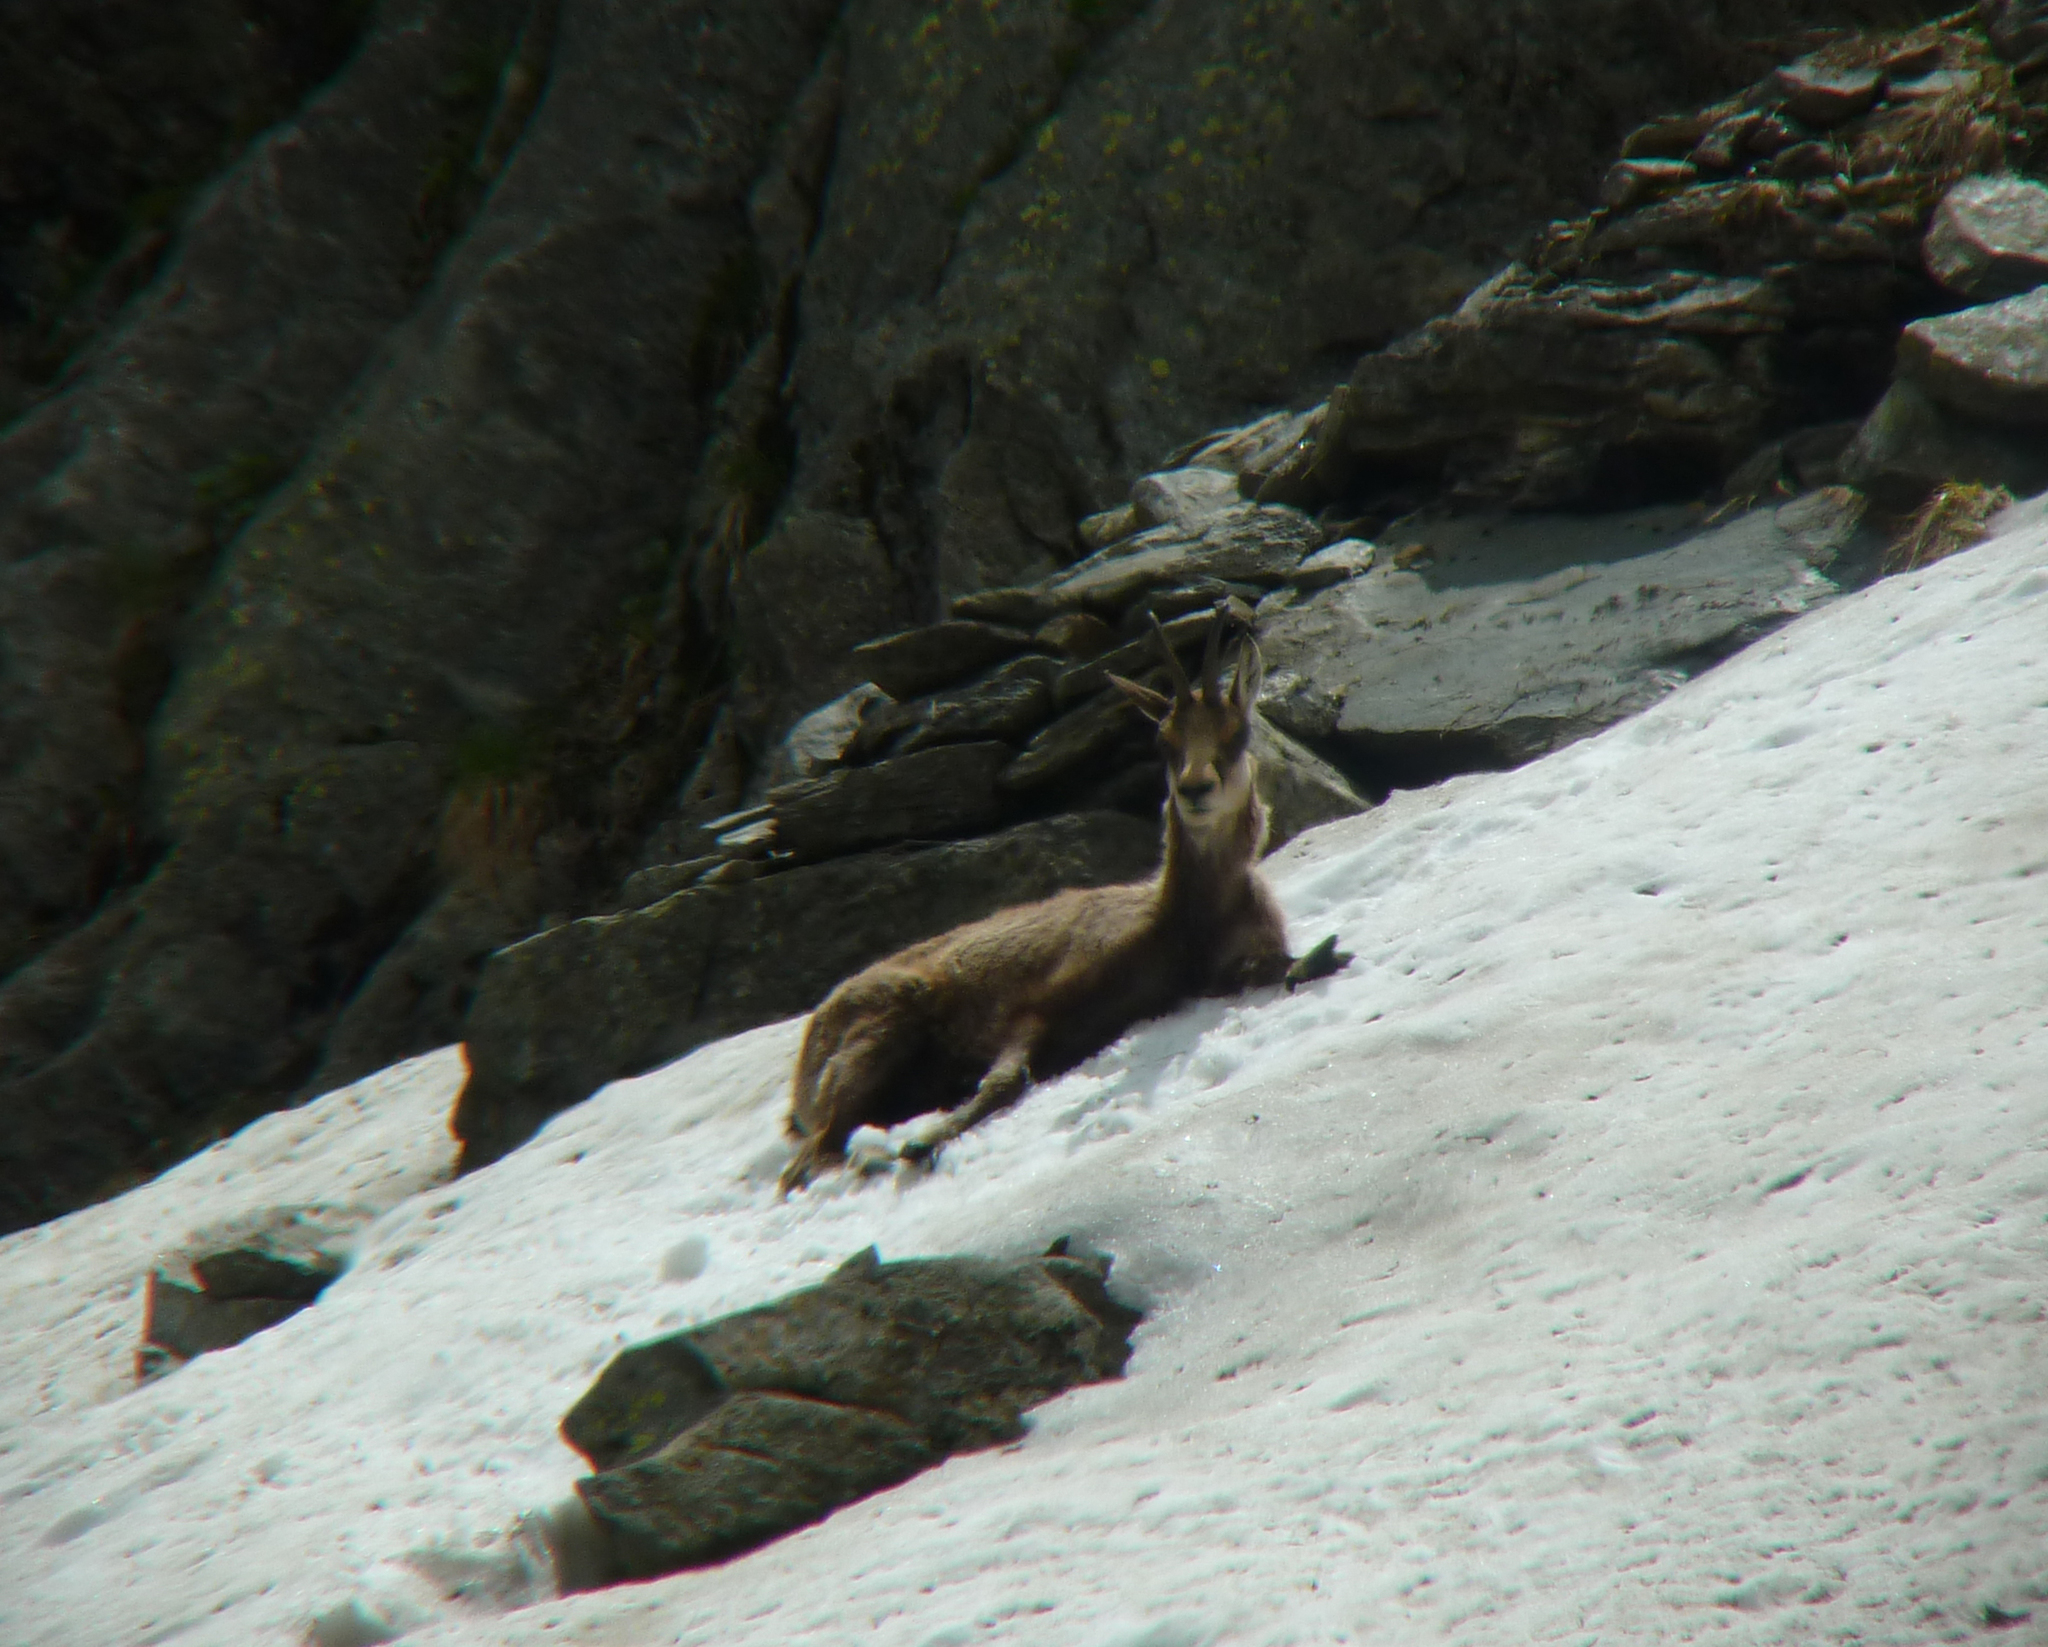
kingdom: Animalia
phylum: Chordata
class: Mammalia
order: Artiodactyla
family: Bovidae
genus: Rupicapra
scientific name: Rupicapra rupicapra
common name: Chamois
